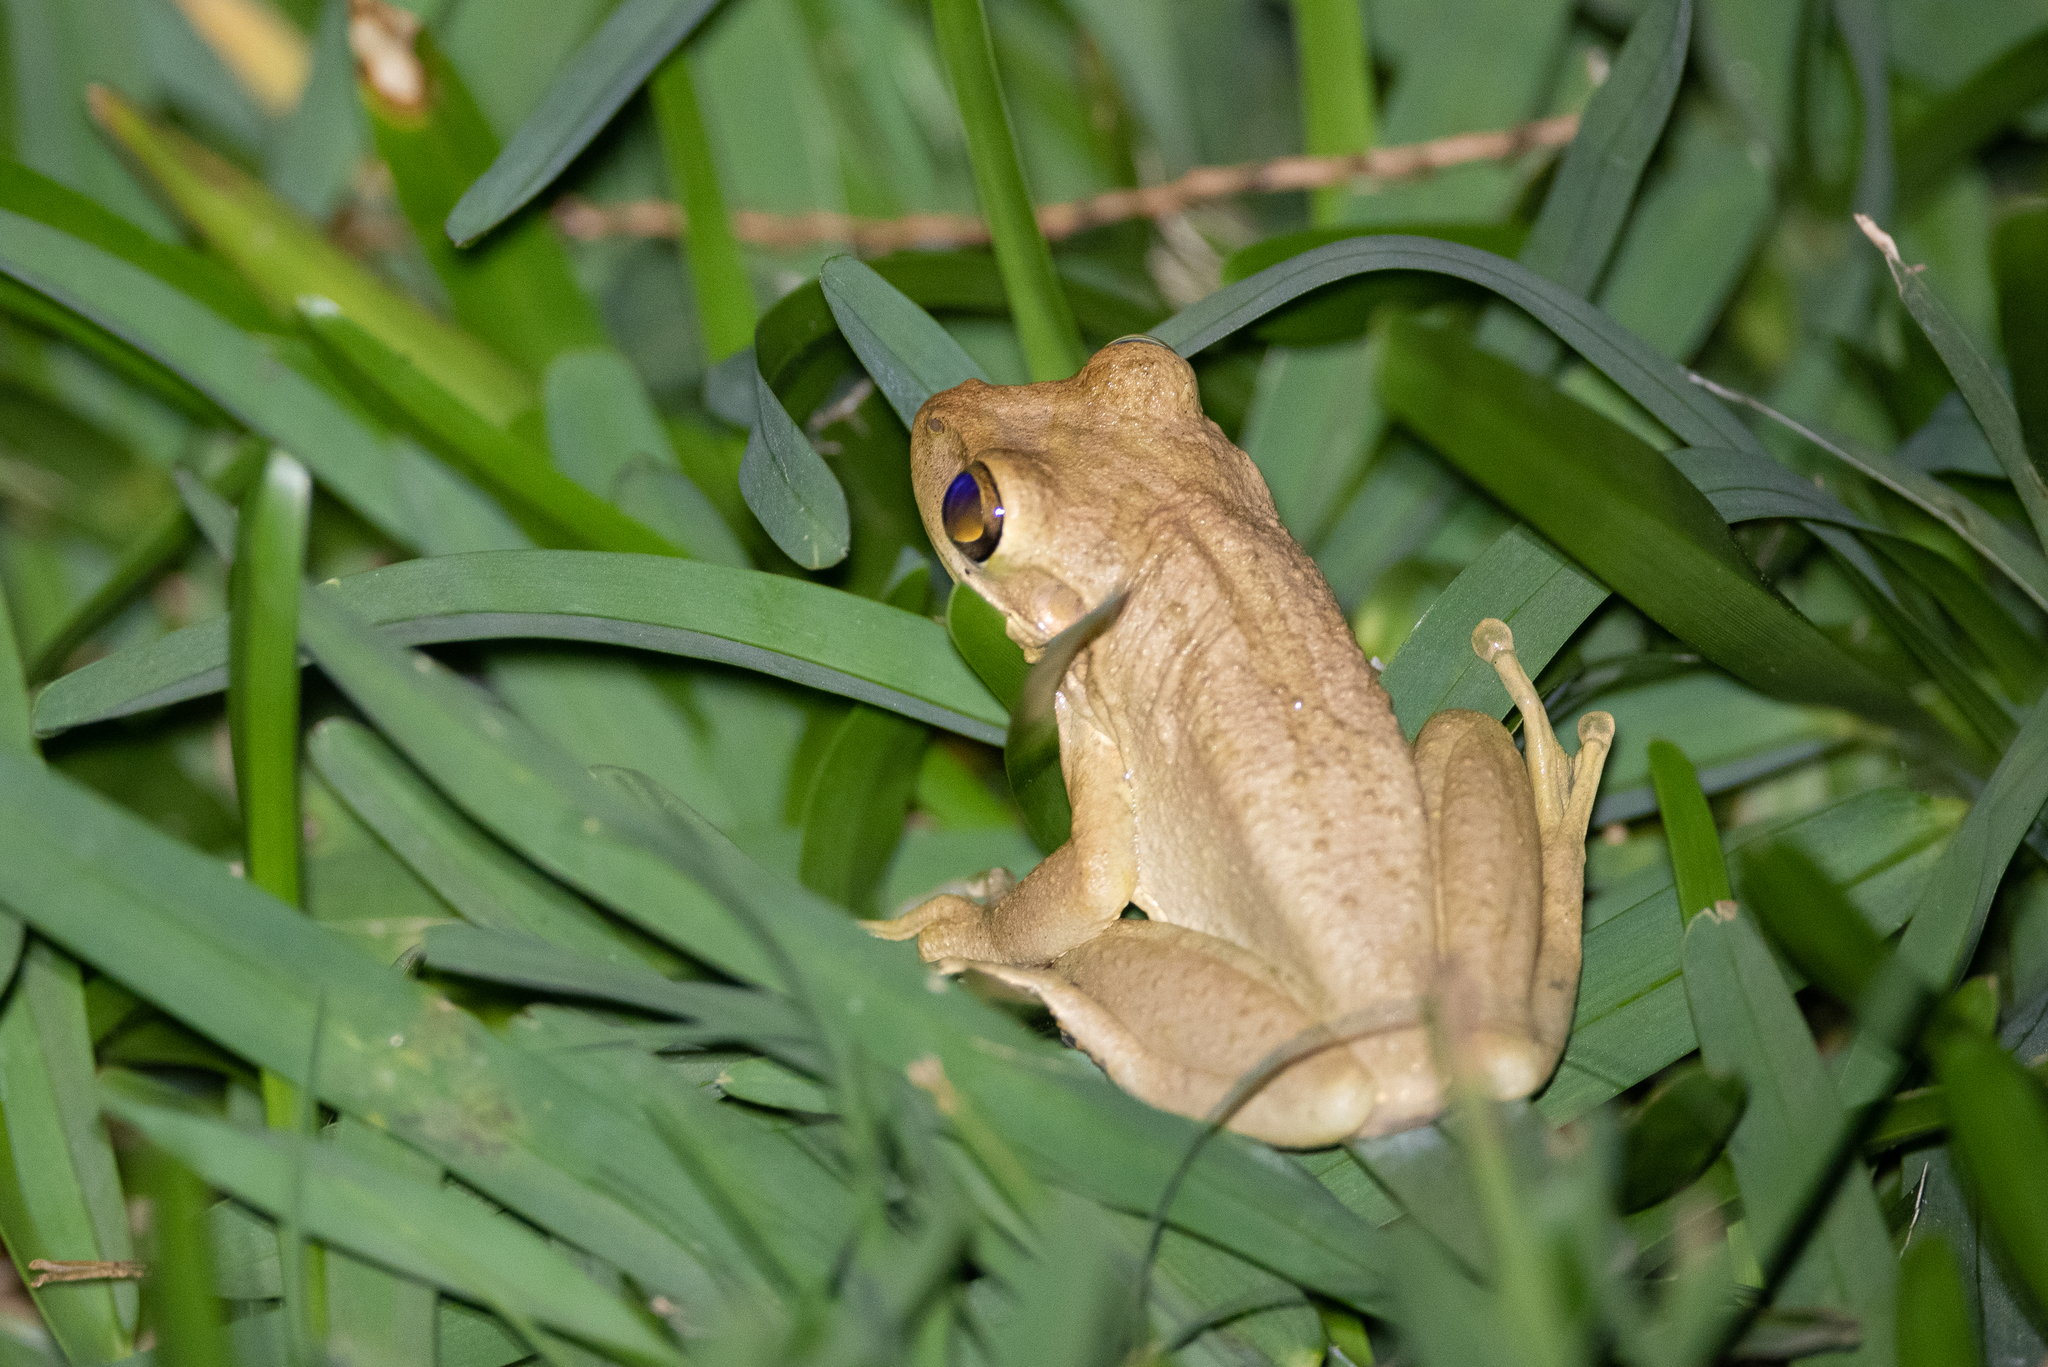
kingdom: Animalia
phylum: Chordata
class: Amphibia
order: Anura
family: Hylidae
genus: Osteopilus
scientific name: Osteopilus septentrionalis
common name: Cuban treefrog
